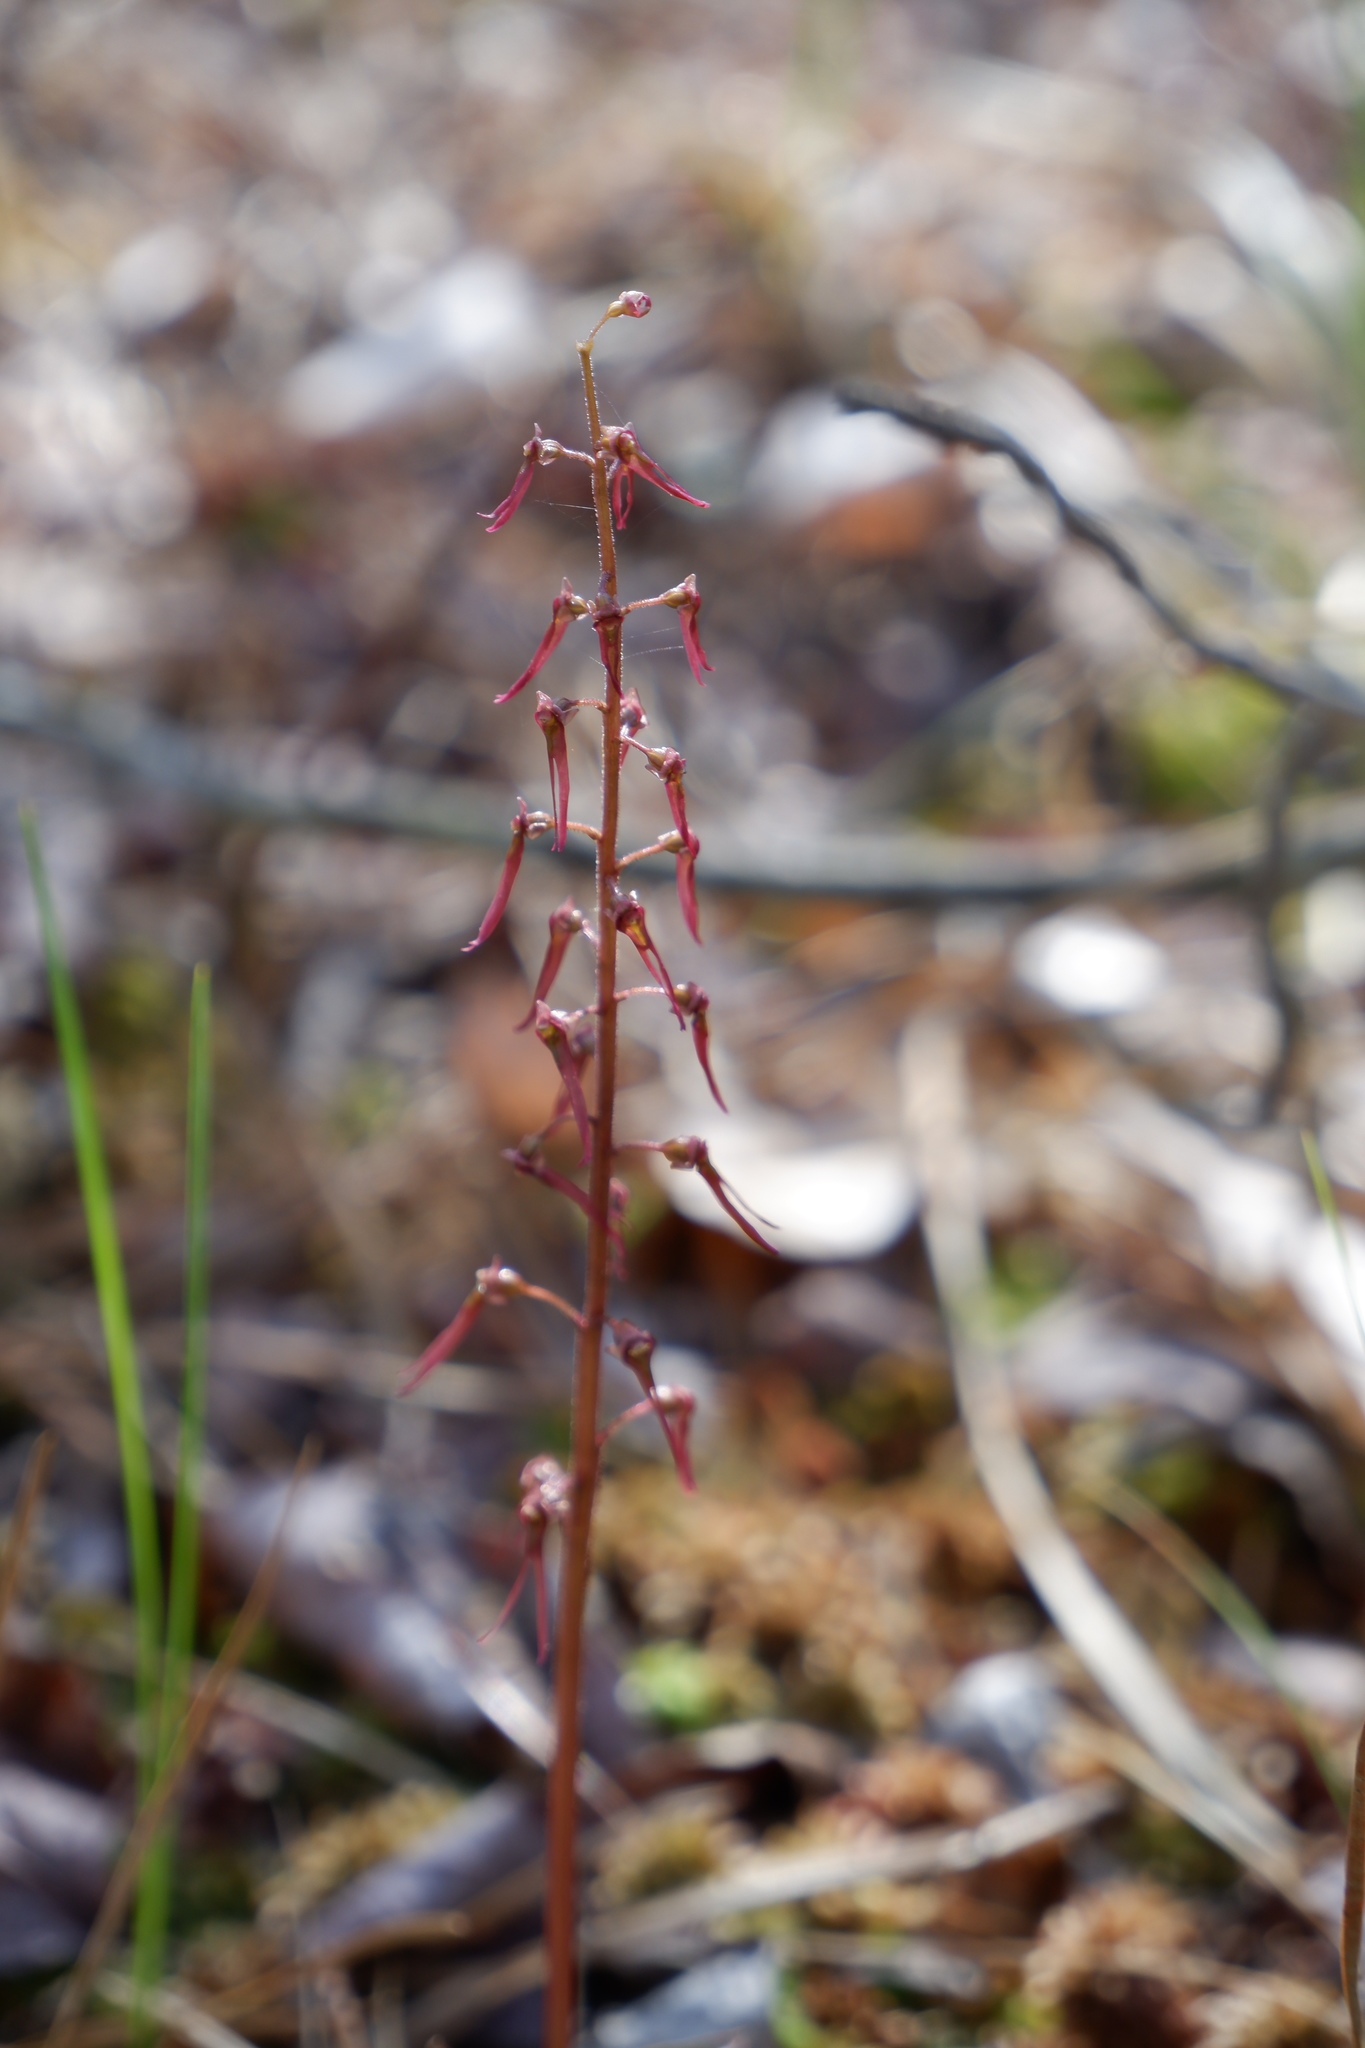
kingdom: Plantae
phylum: Tracheophyta
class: Liliopsida
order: Asparagales
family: Orchidaceae
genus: Neottia
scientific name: Neottia bifolia
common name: Southern twayblade
